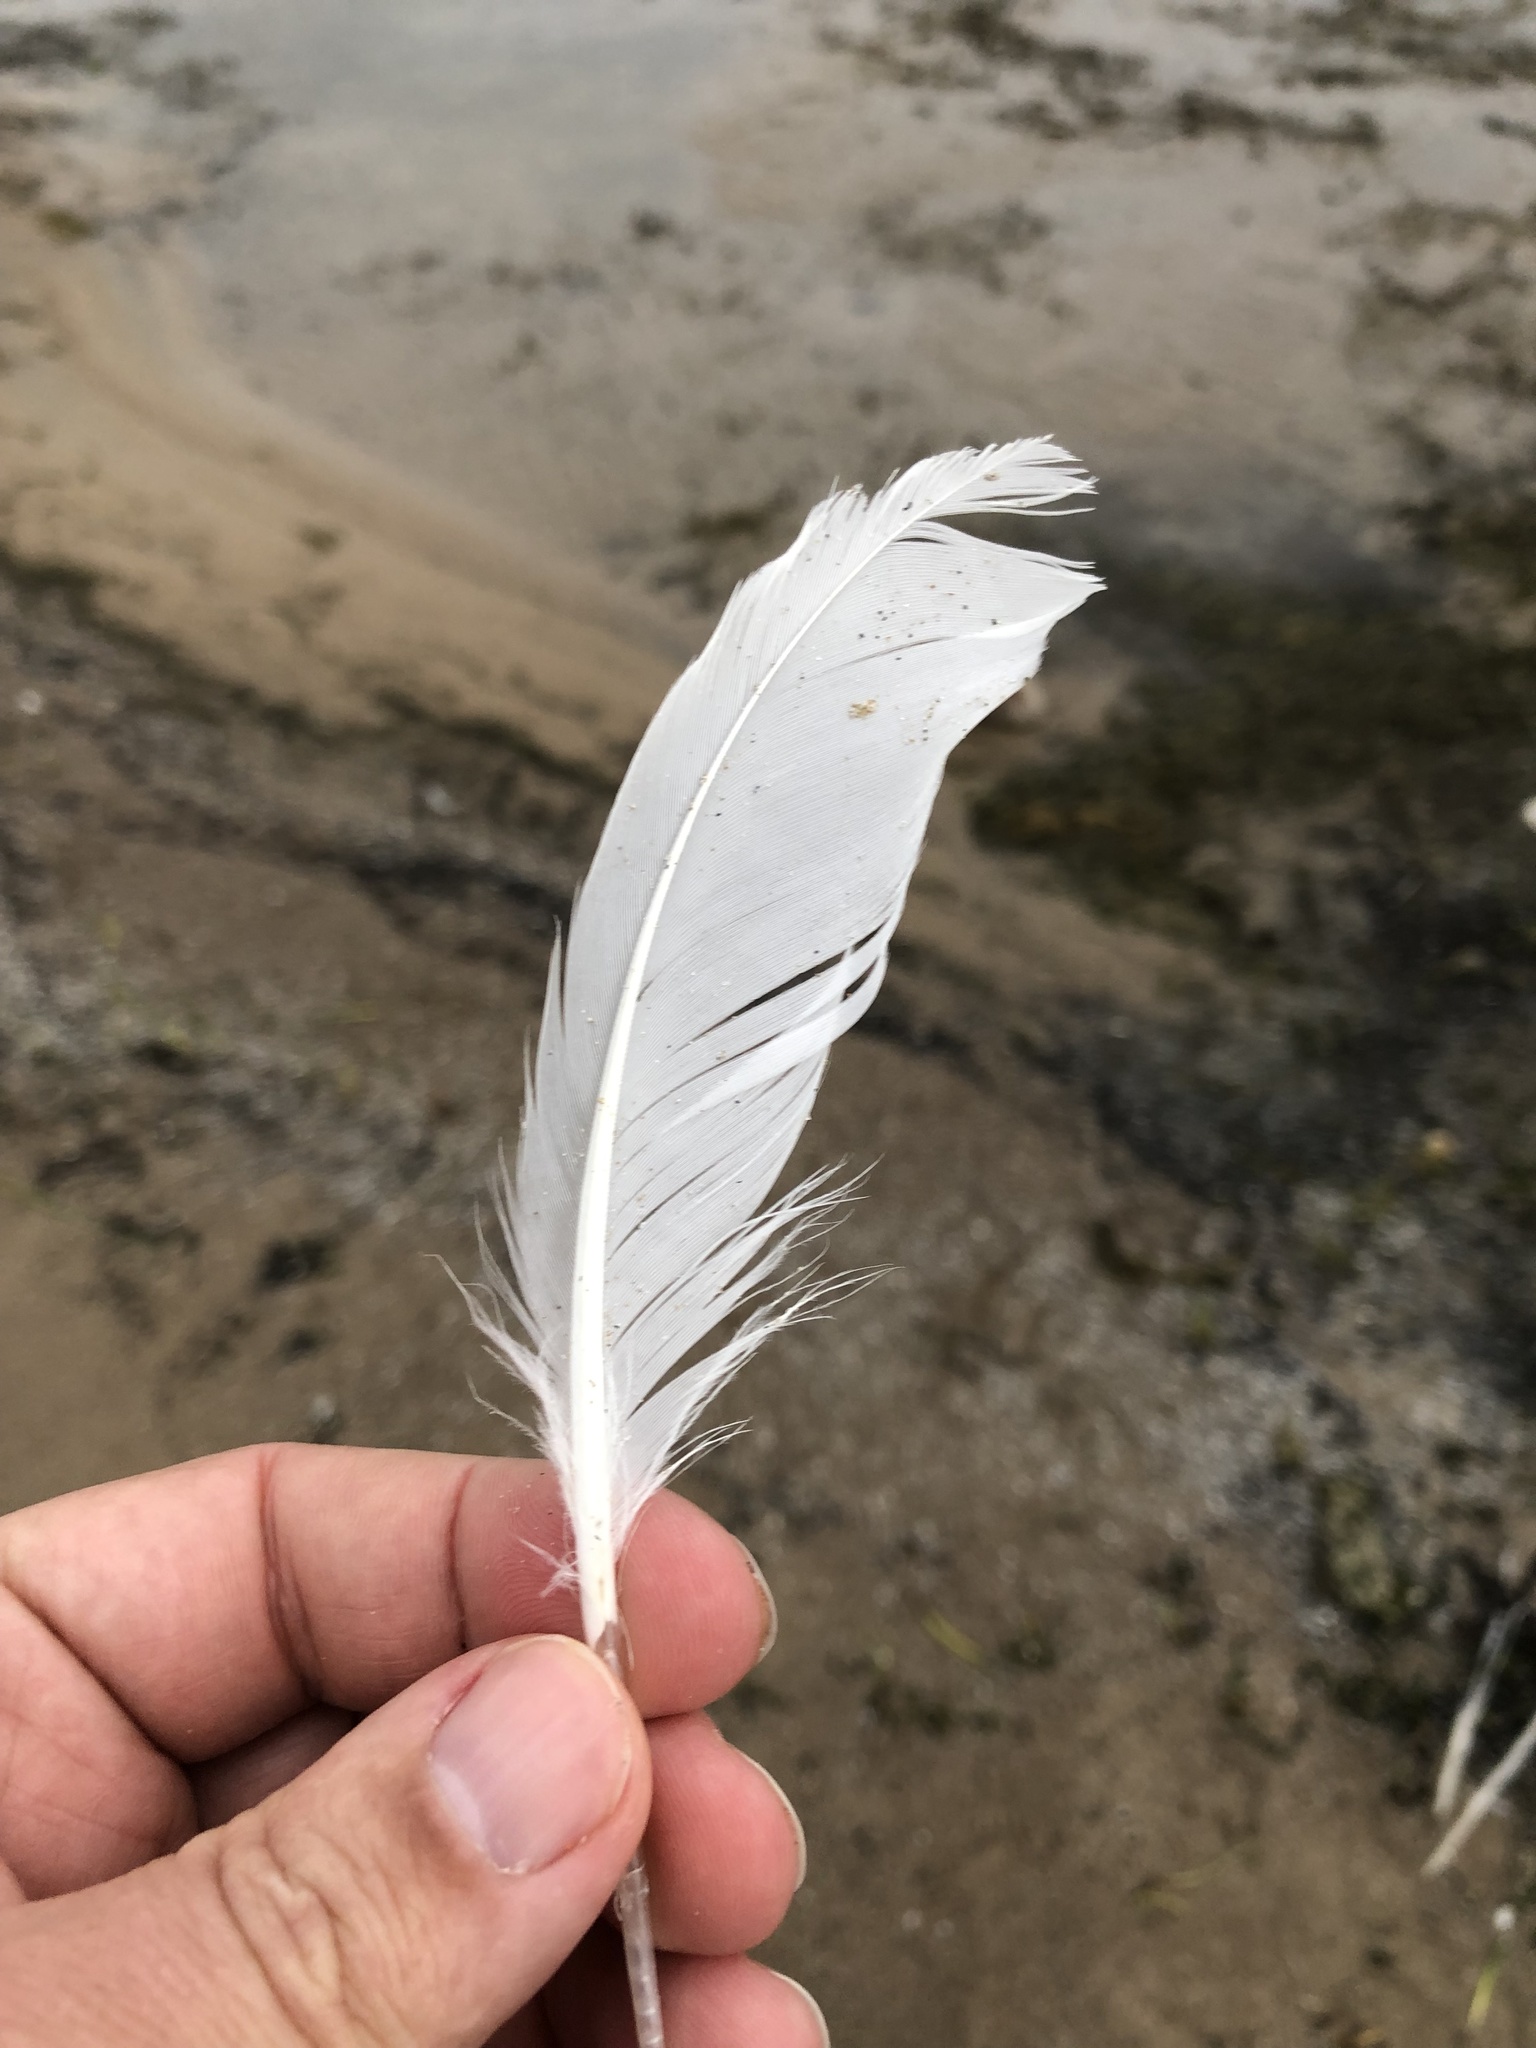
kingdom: Animalia
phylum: Chordata
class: Aves
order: Charadriiformes
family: Laridae
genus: Larus
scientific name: Larus delawarensis
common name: Ring-billed gull
